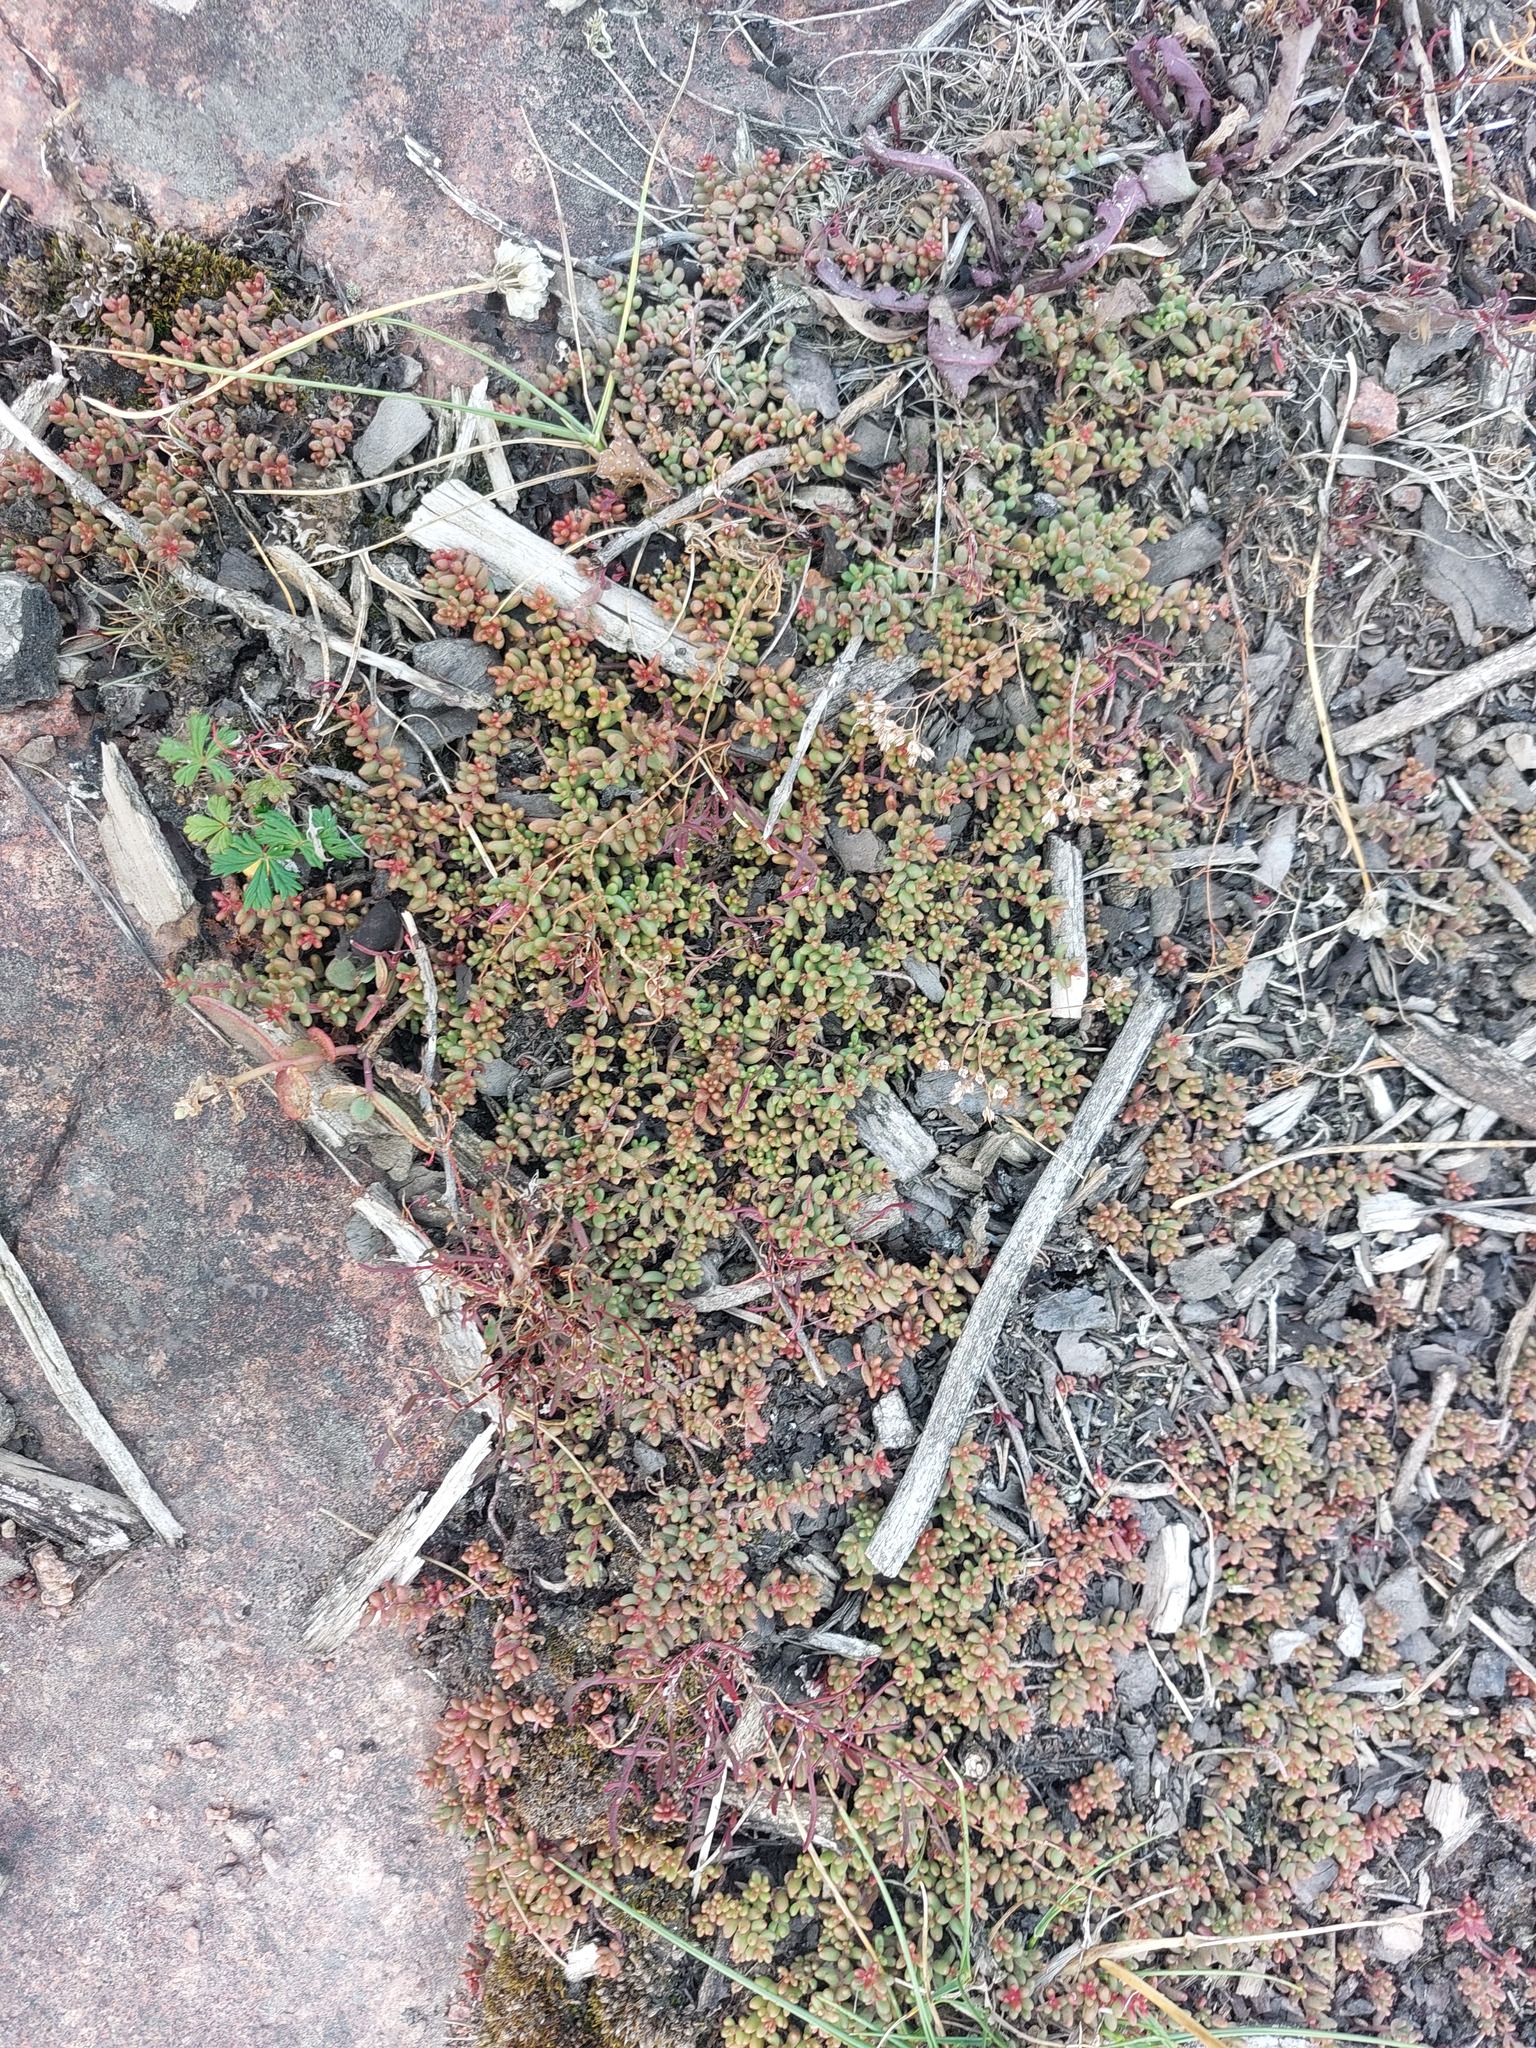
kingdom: Plantae
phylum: Tracheophyta
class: Magnoliopsida
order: Saxifragales
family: Crassulaceae
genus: Sedum
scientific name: Sedum album
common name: White stonecrop
